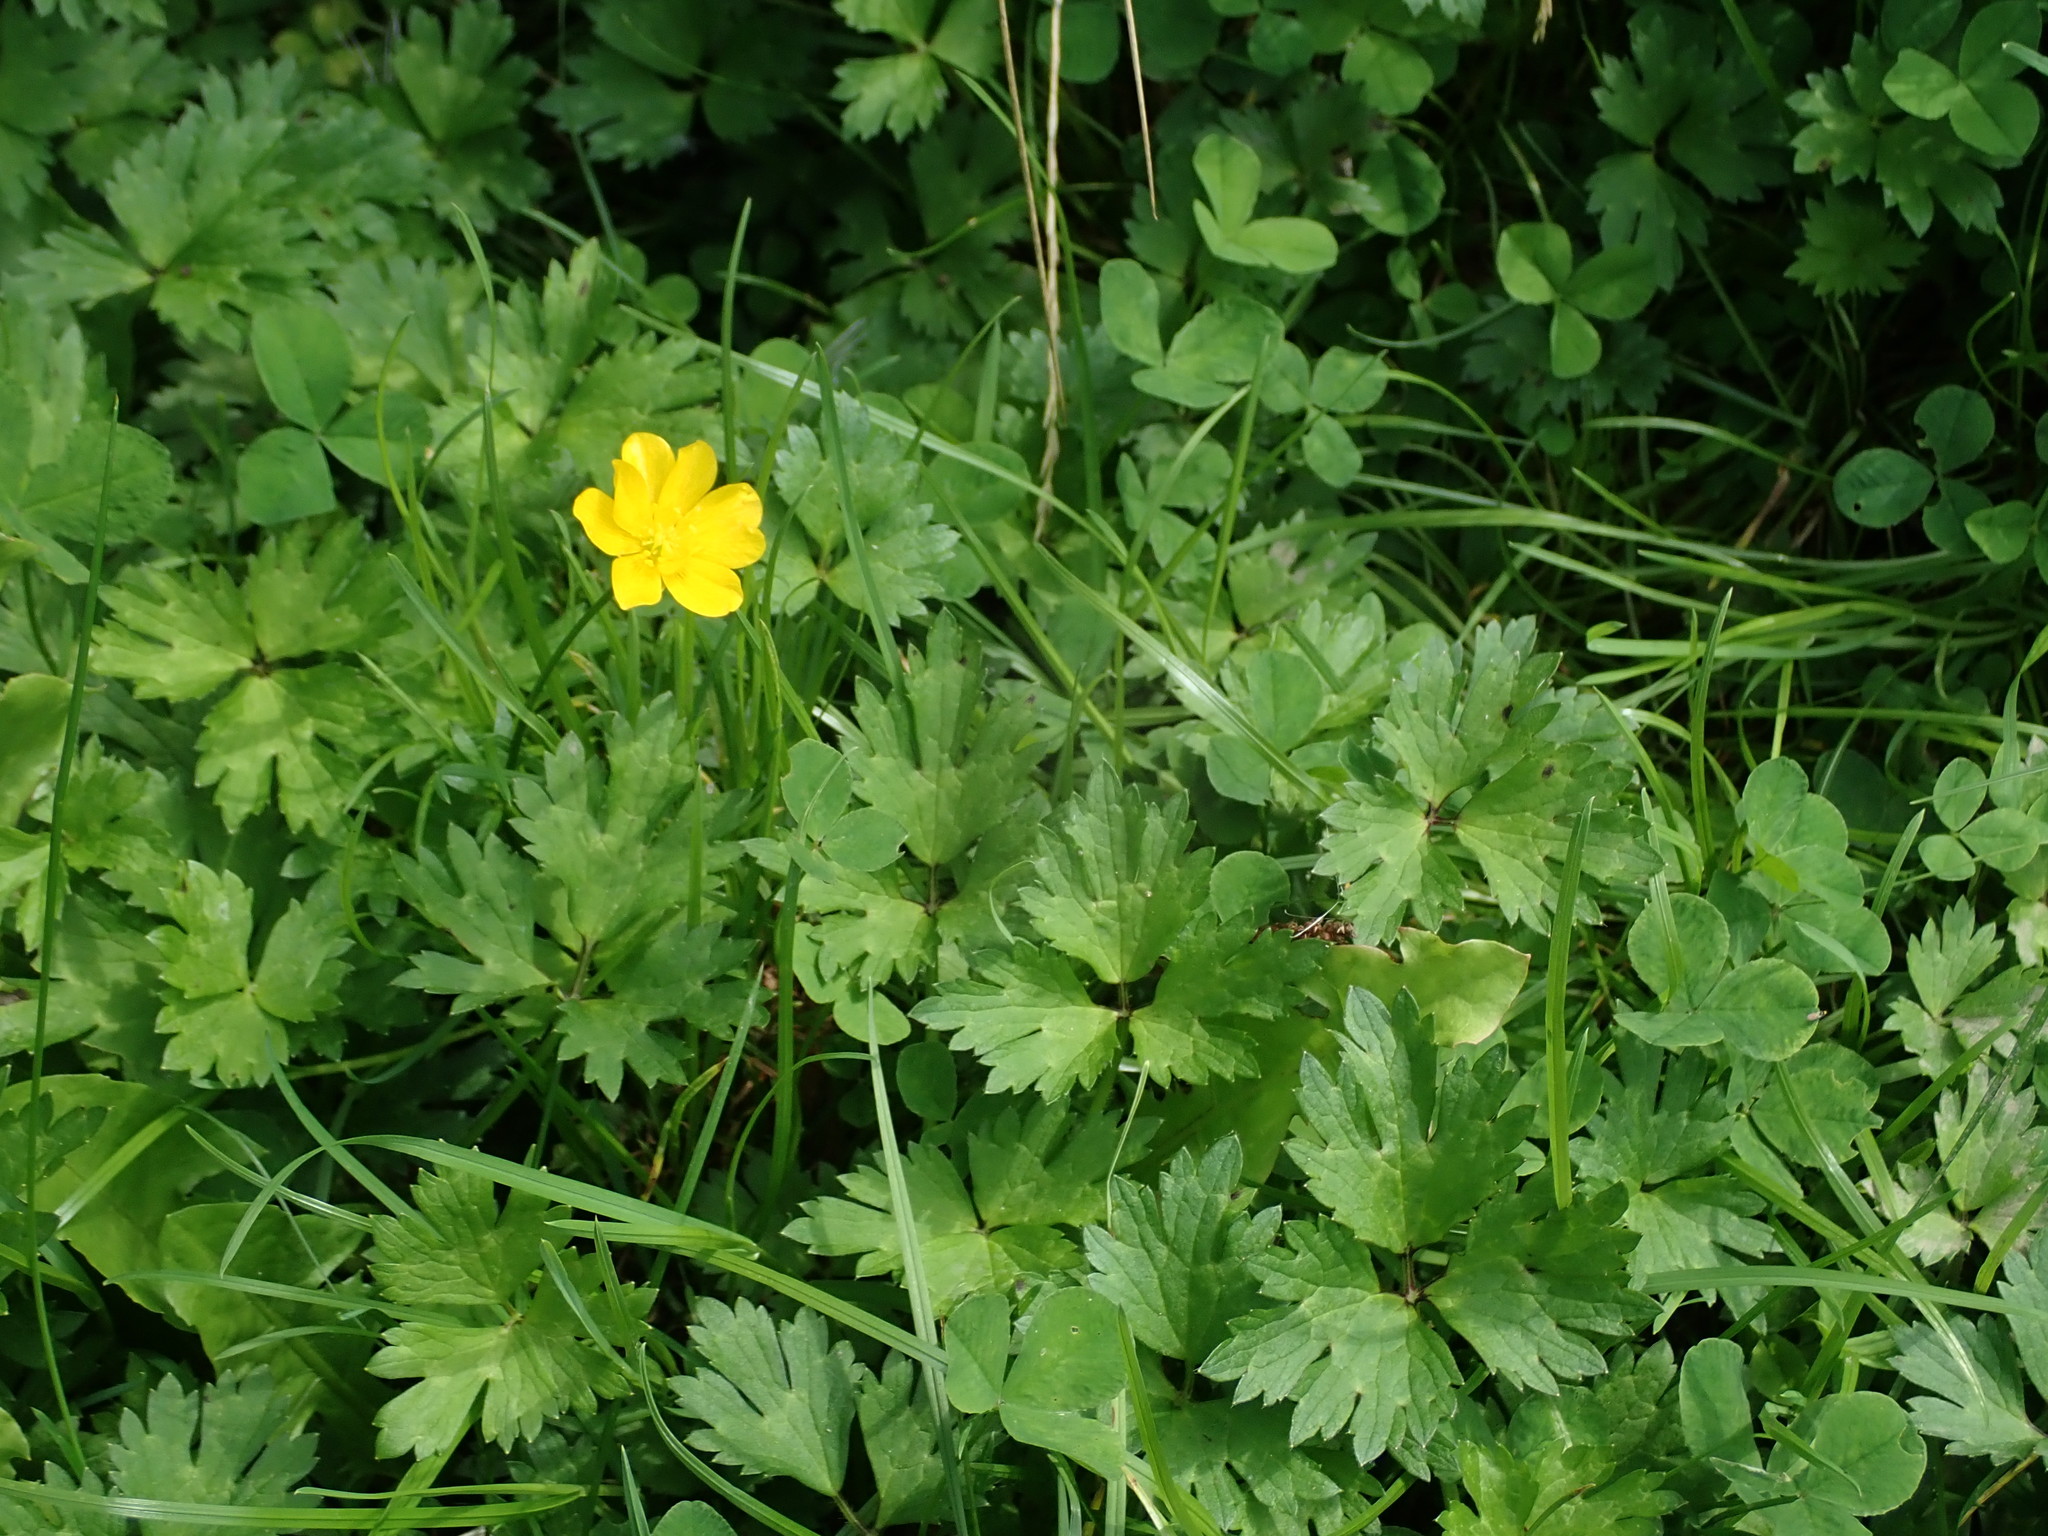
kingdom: Plantae
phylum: Tracheophyta
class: Magnoliopsida
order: Ranunculales
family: Ranunculaceae
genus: Ranunculus
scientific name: Ranunculus repens
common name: Creeping buttercup
